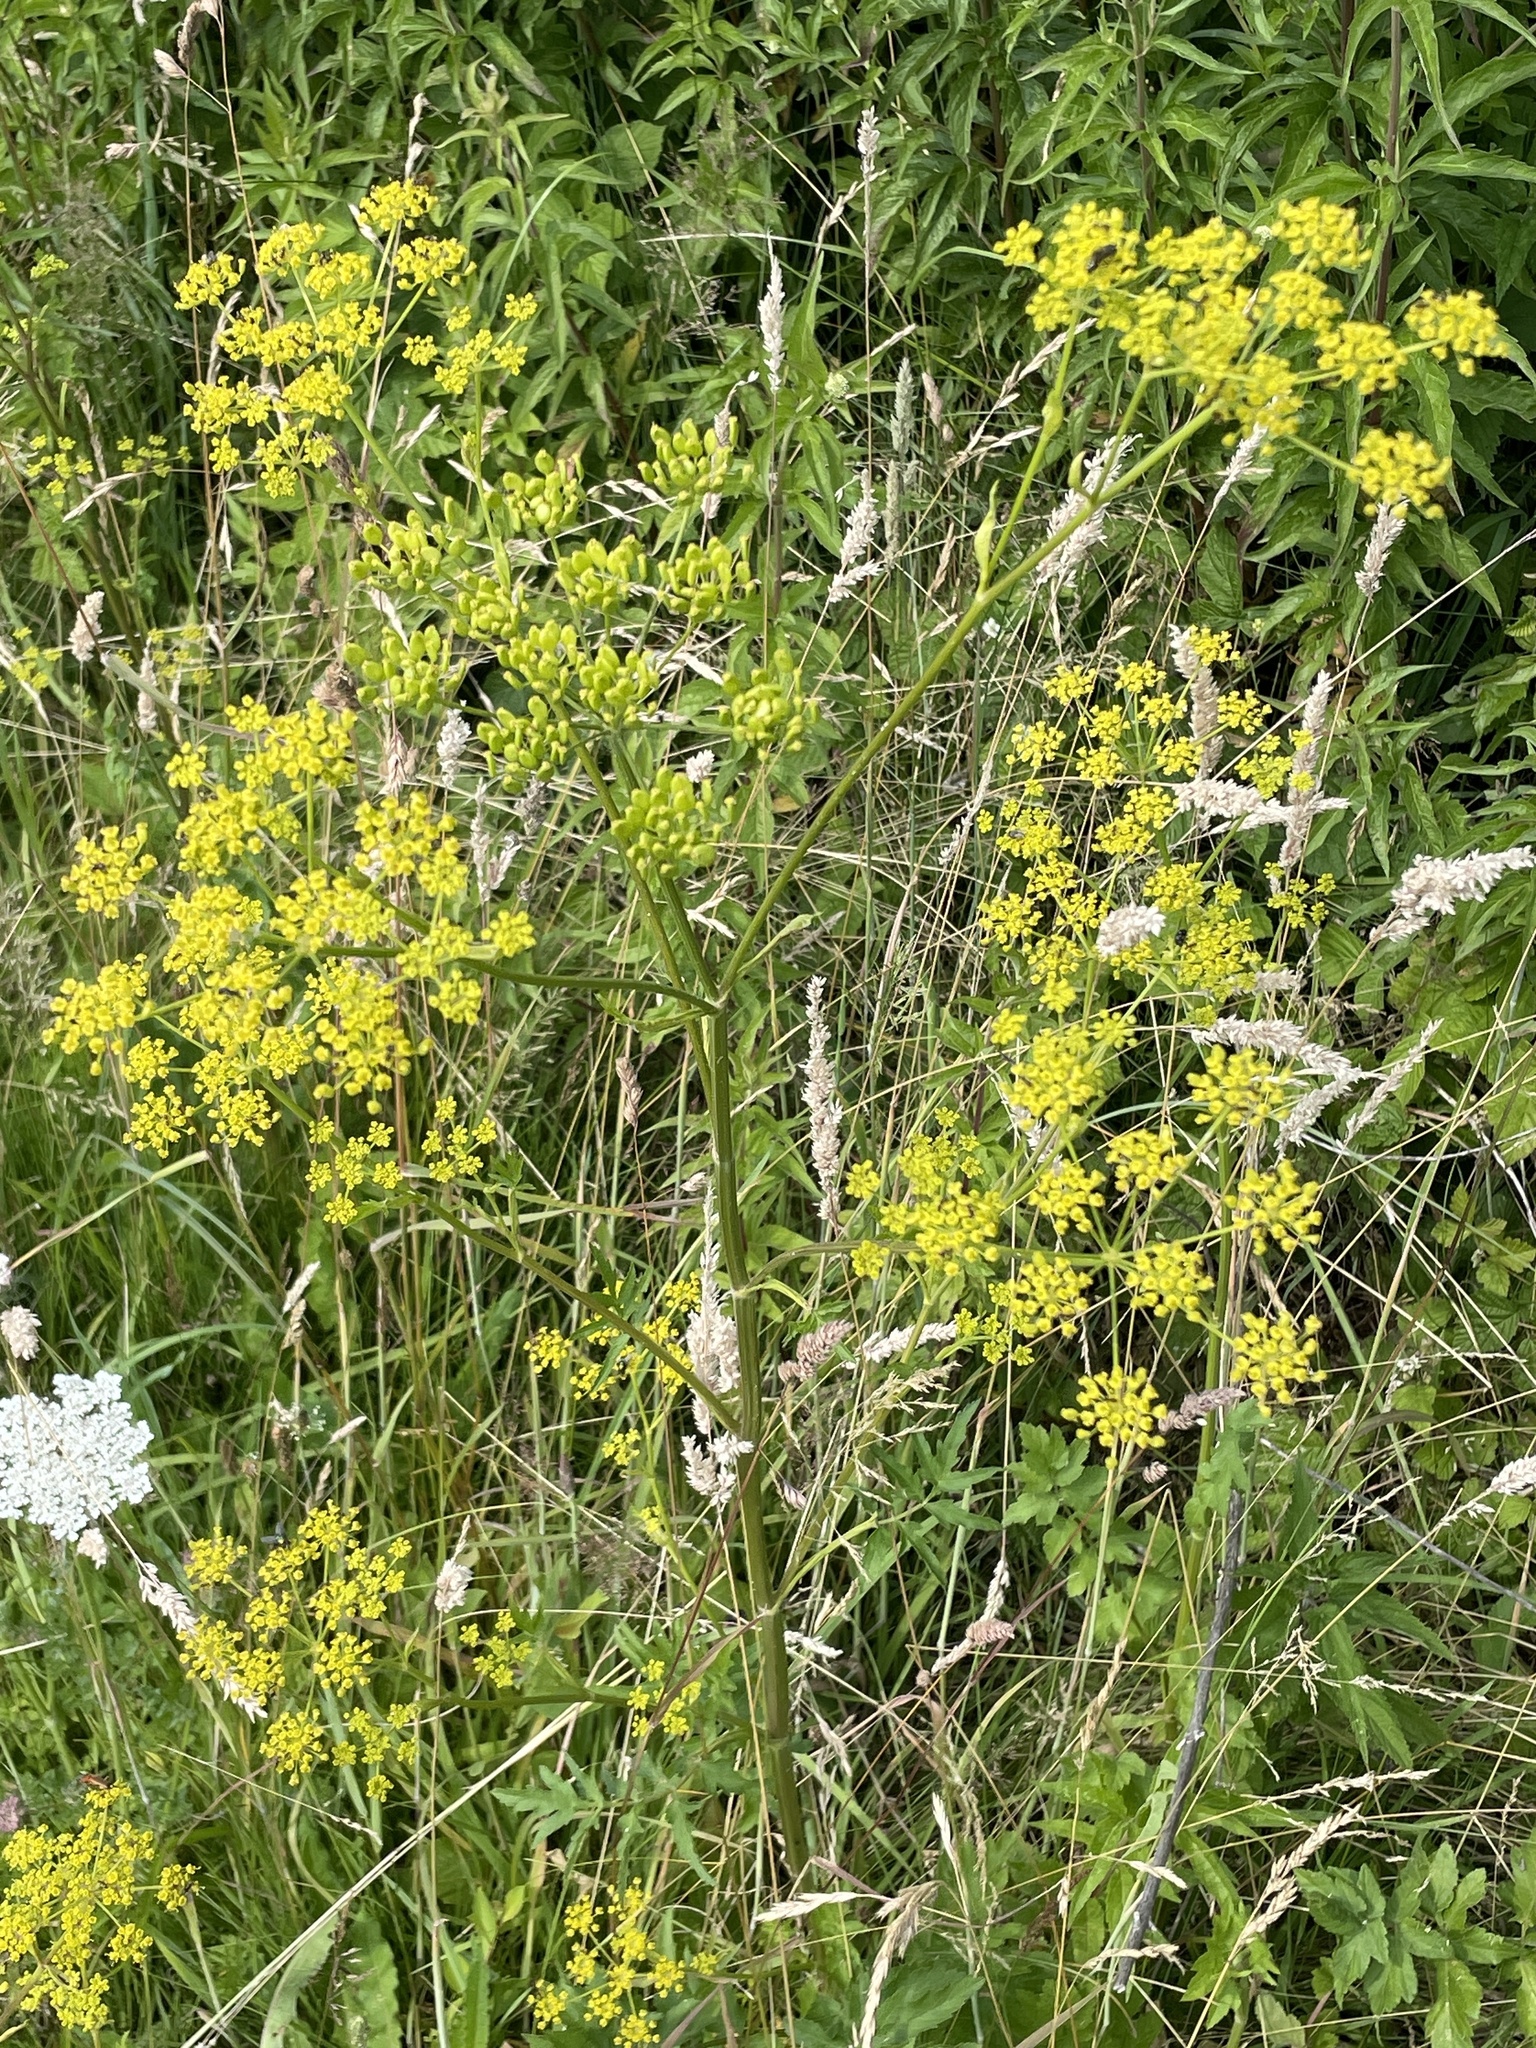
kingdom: Plantae
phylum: Tracheophyta
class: Magnoliopsida
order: Apiales
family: Apiaceae
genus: Pastinaca
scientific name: Pastinaca sativa
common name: Wild parsnip
